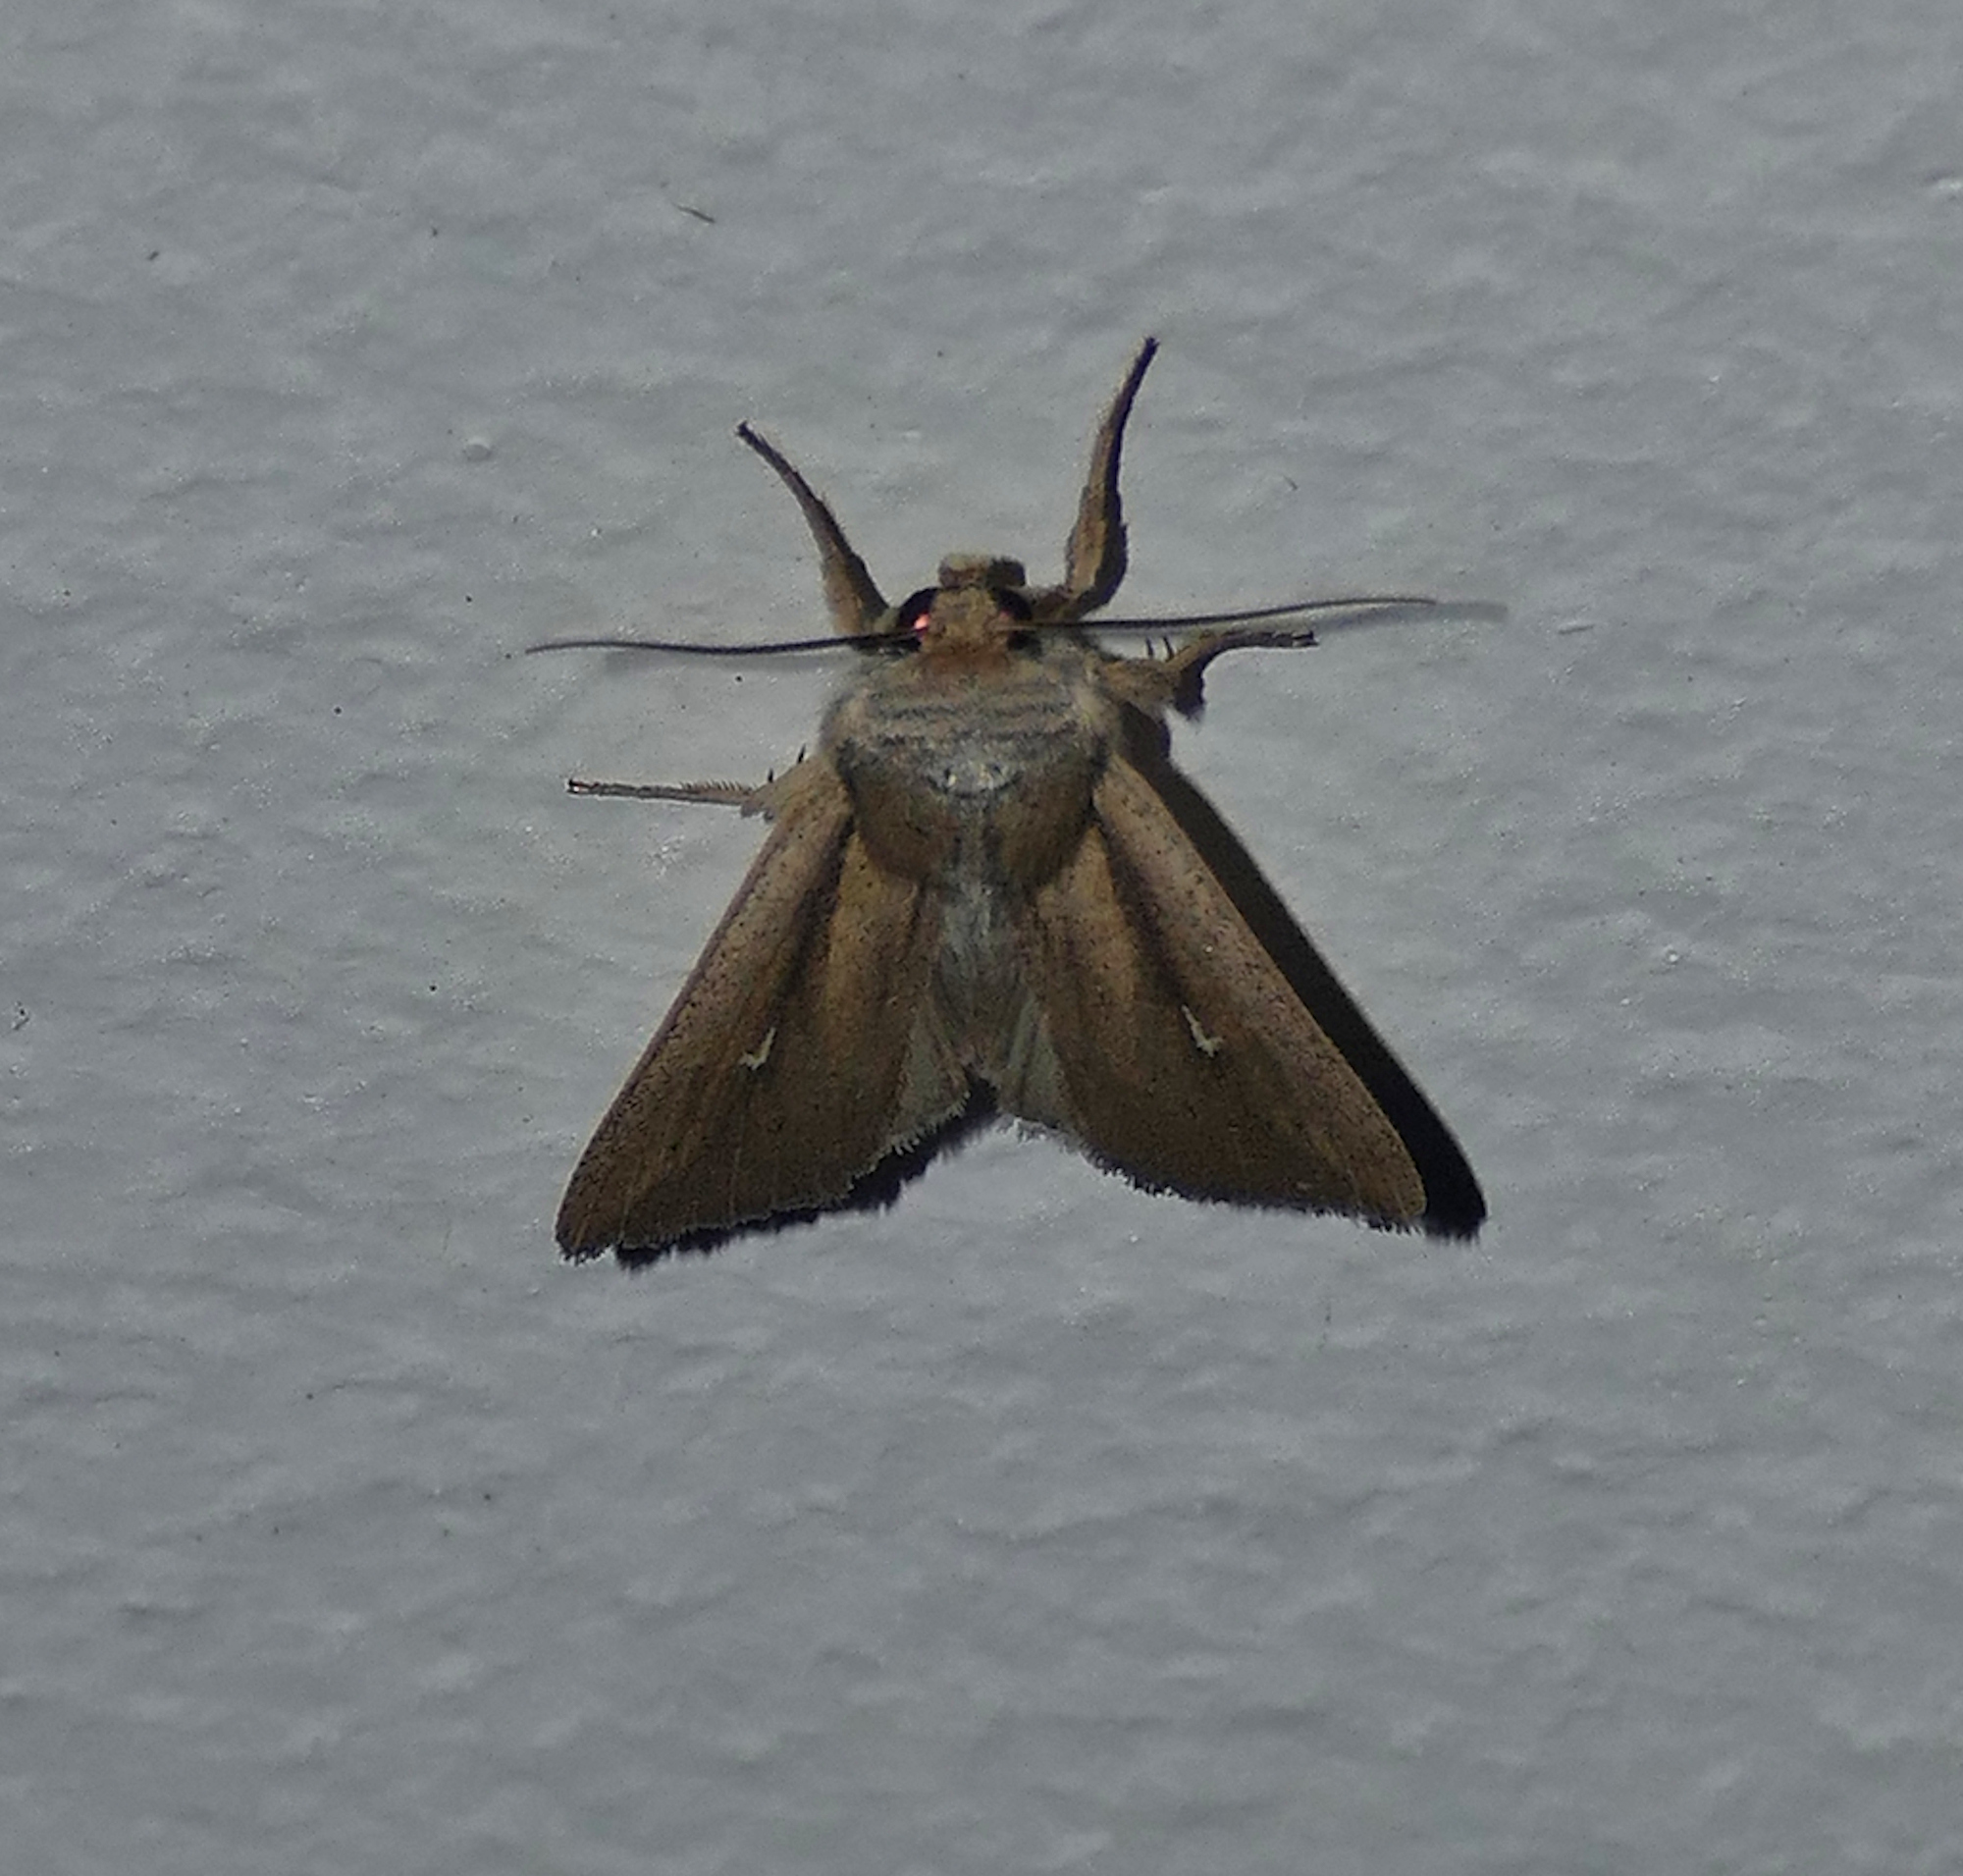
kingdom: Animalia
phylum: Arthropoda
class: Insecta
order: Lepidoptera
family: Noctuidae
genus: Leucania
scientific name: Leucania imperfecta
